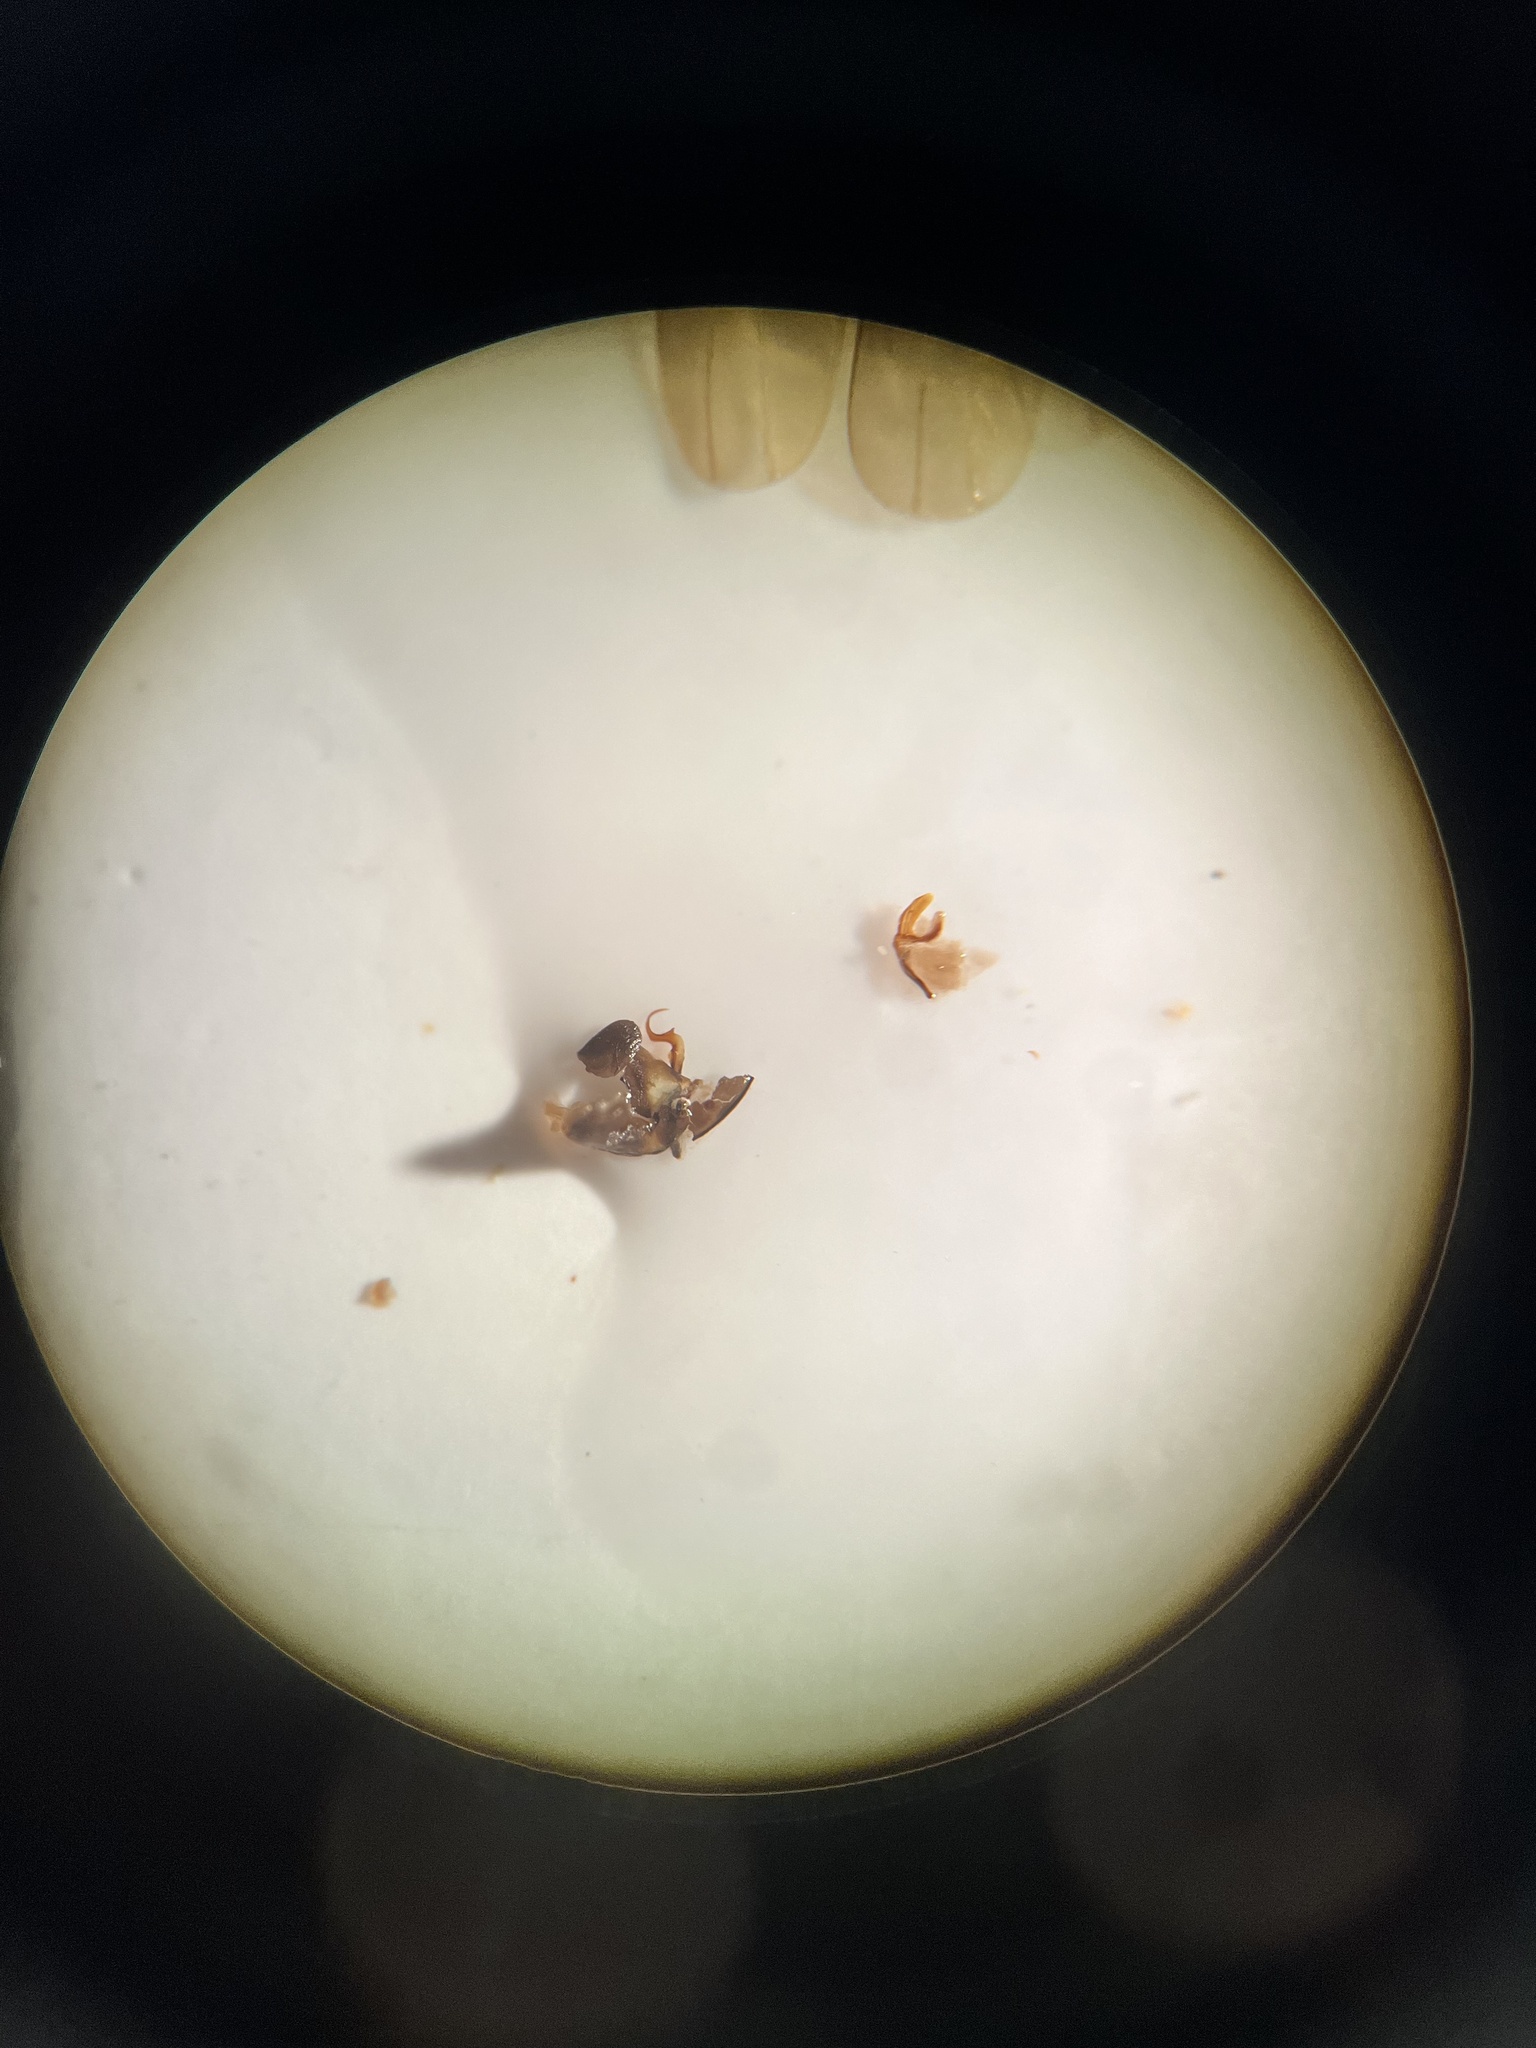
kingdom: Animalia
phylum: Arthropoda
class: Insecta
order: Hemiptera
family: Cicadellidae
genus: Arboridia
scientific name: Arboridia ribauti
